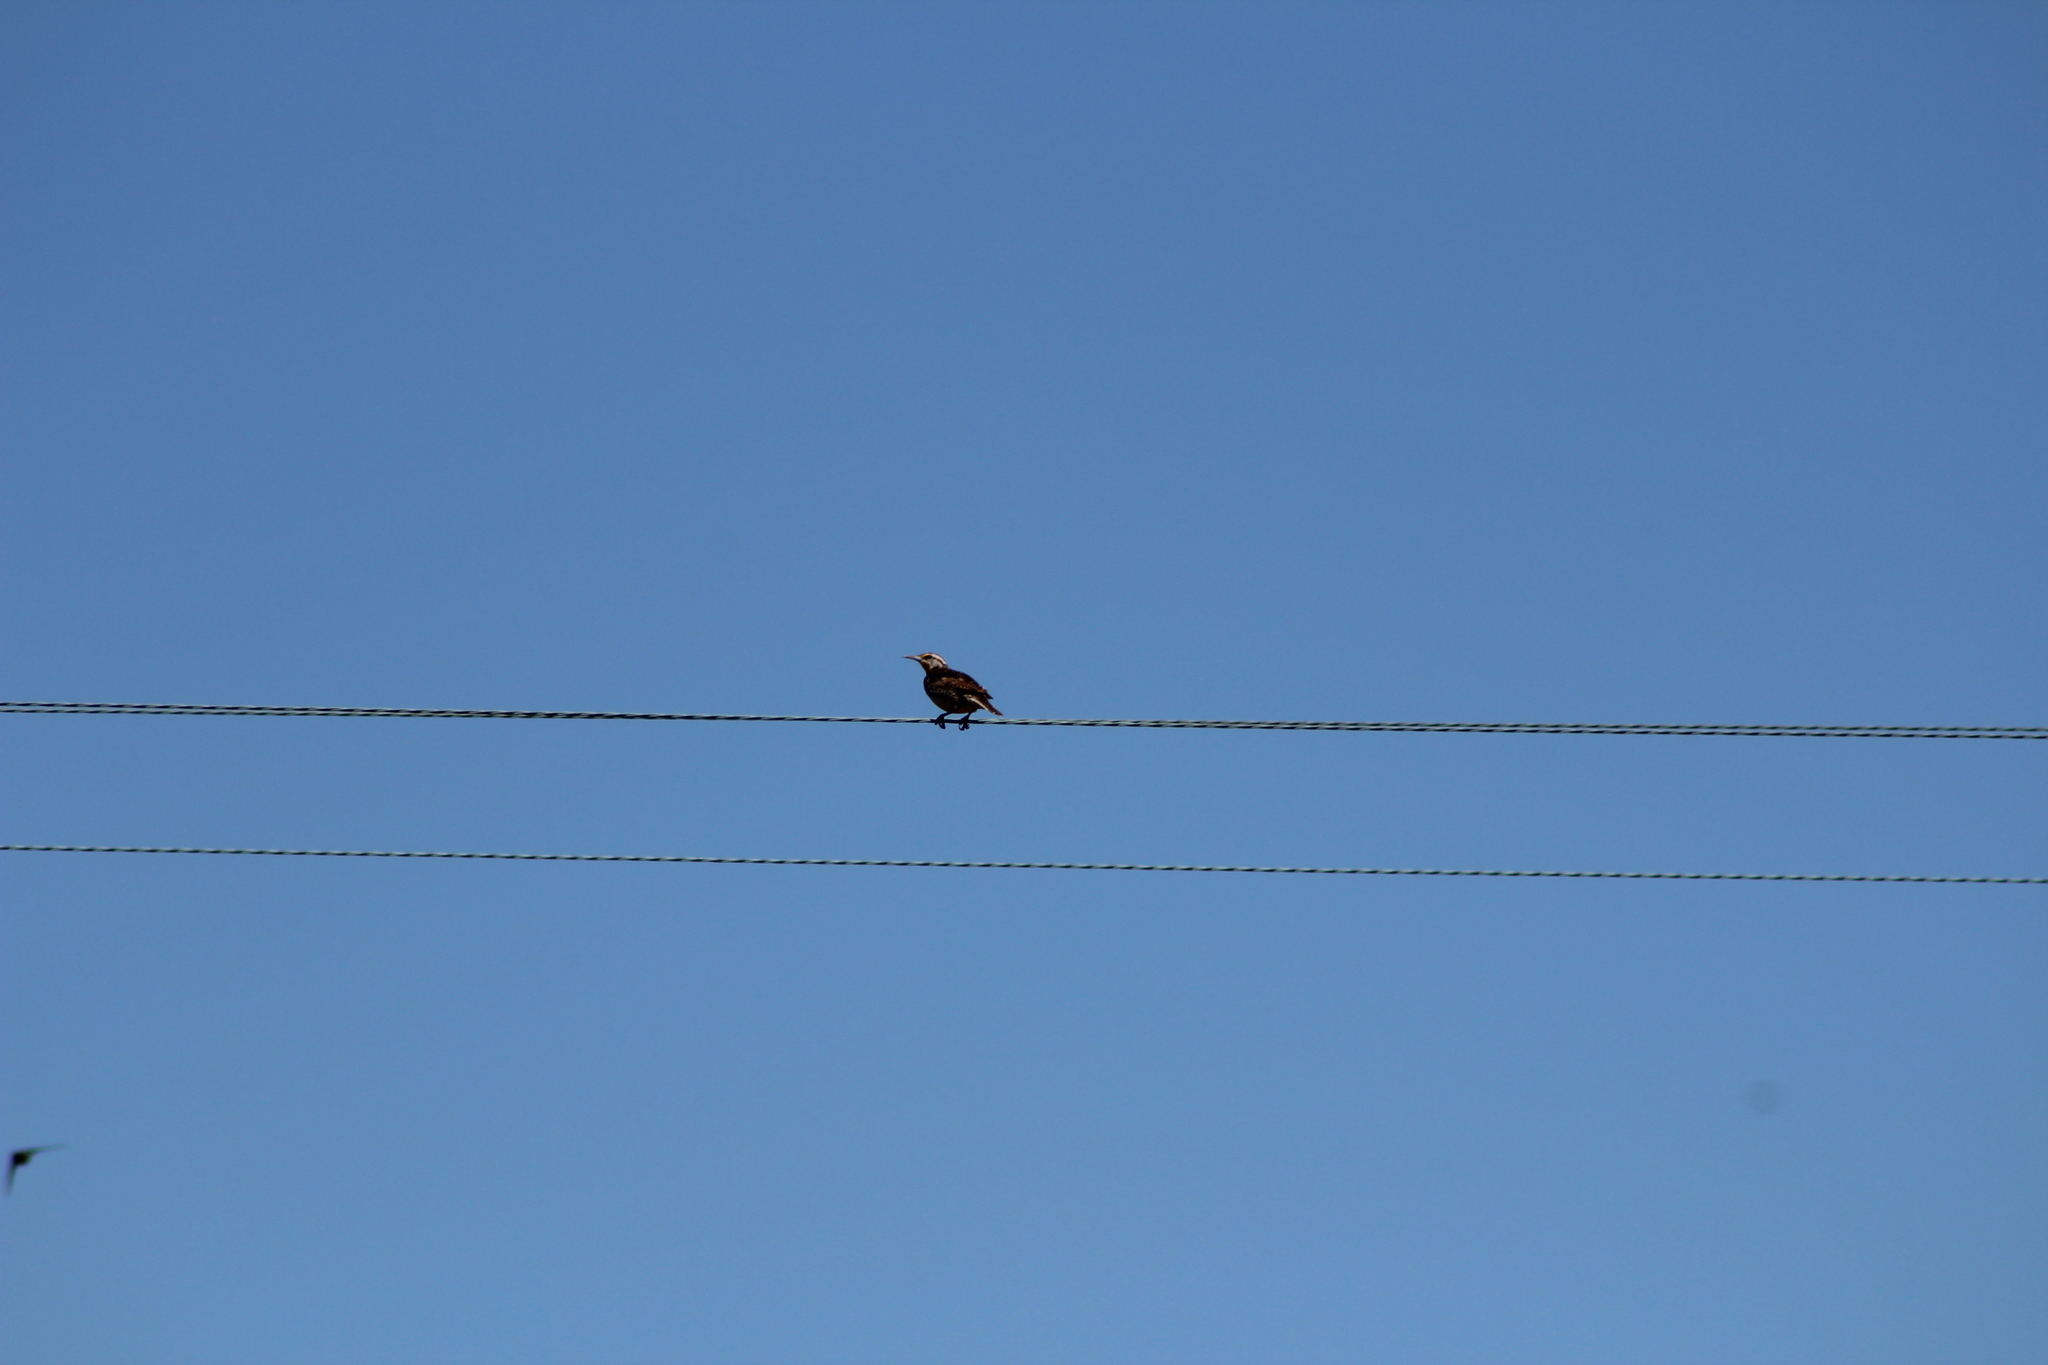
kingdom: Animalia
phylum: Chordata
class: Aves
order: Passeriformes
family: Icteridae
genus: Sturnella
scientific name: Sturnella neglecta
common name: Western meadowlark
